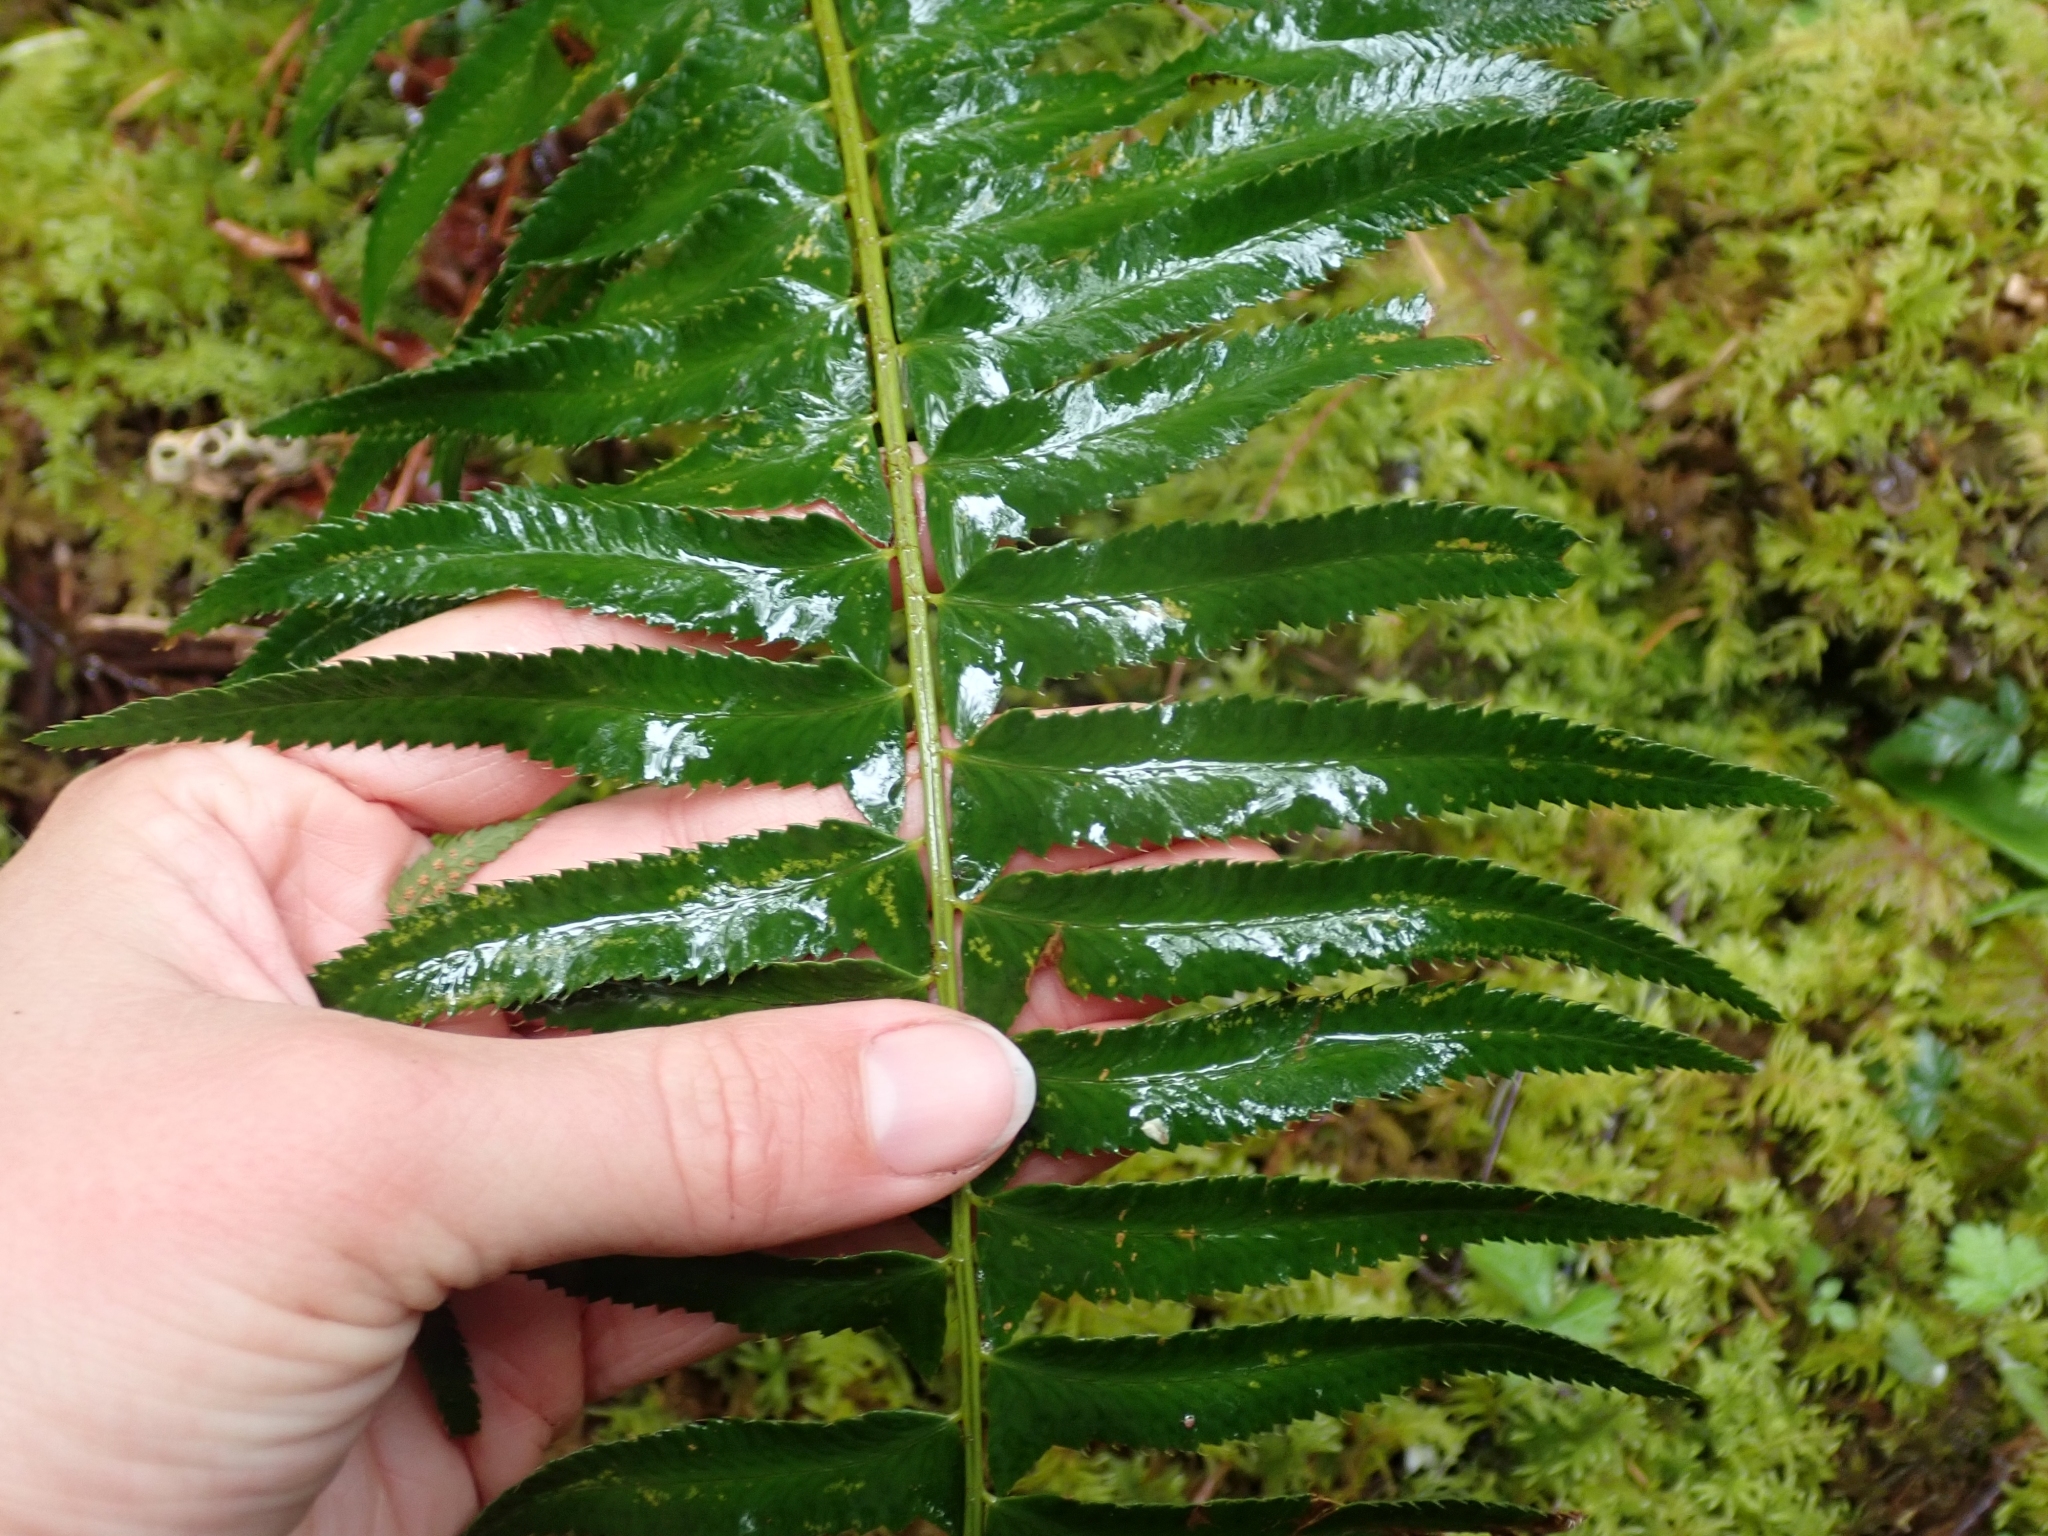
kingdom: Plantae
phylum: Tracheophyta
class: Polypodiopsida
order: Polypodiales
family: Dryopteridaceae
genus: Polystichum
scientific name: Polystichum munitum
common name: Western sword-fern
